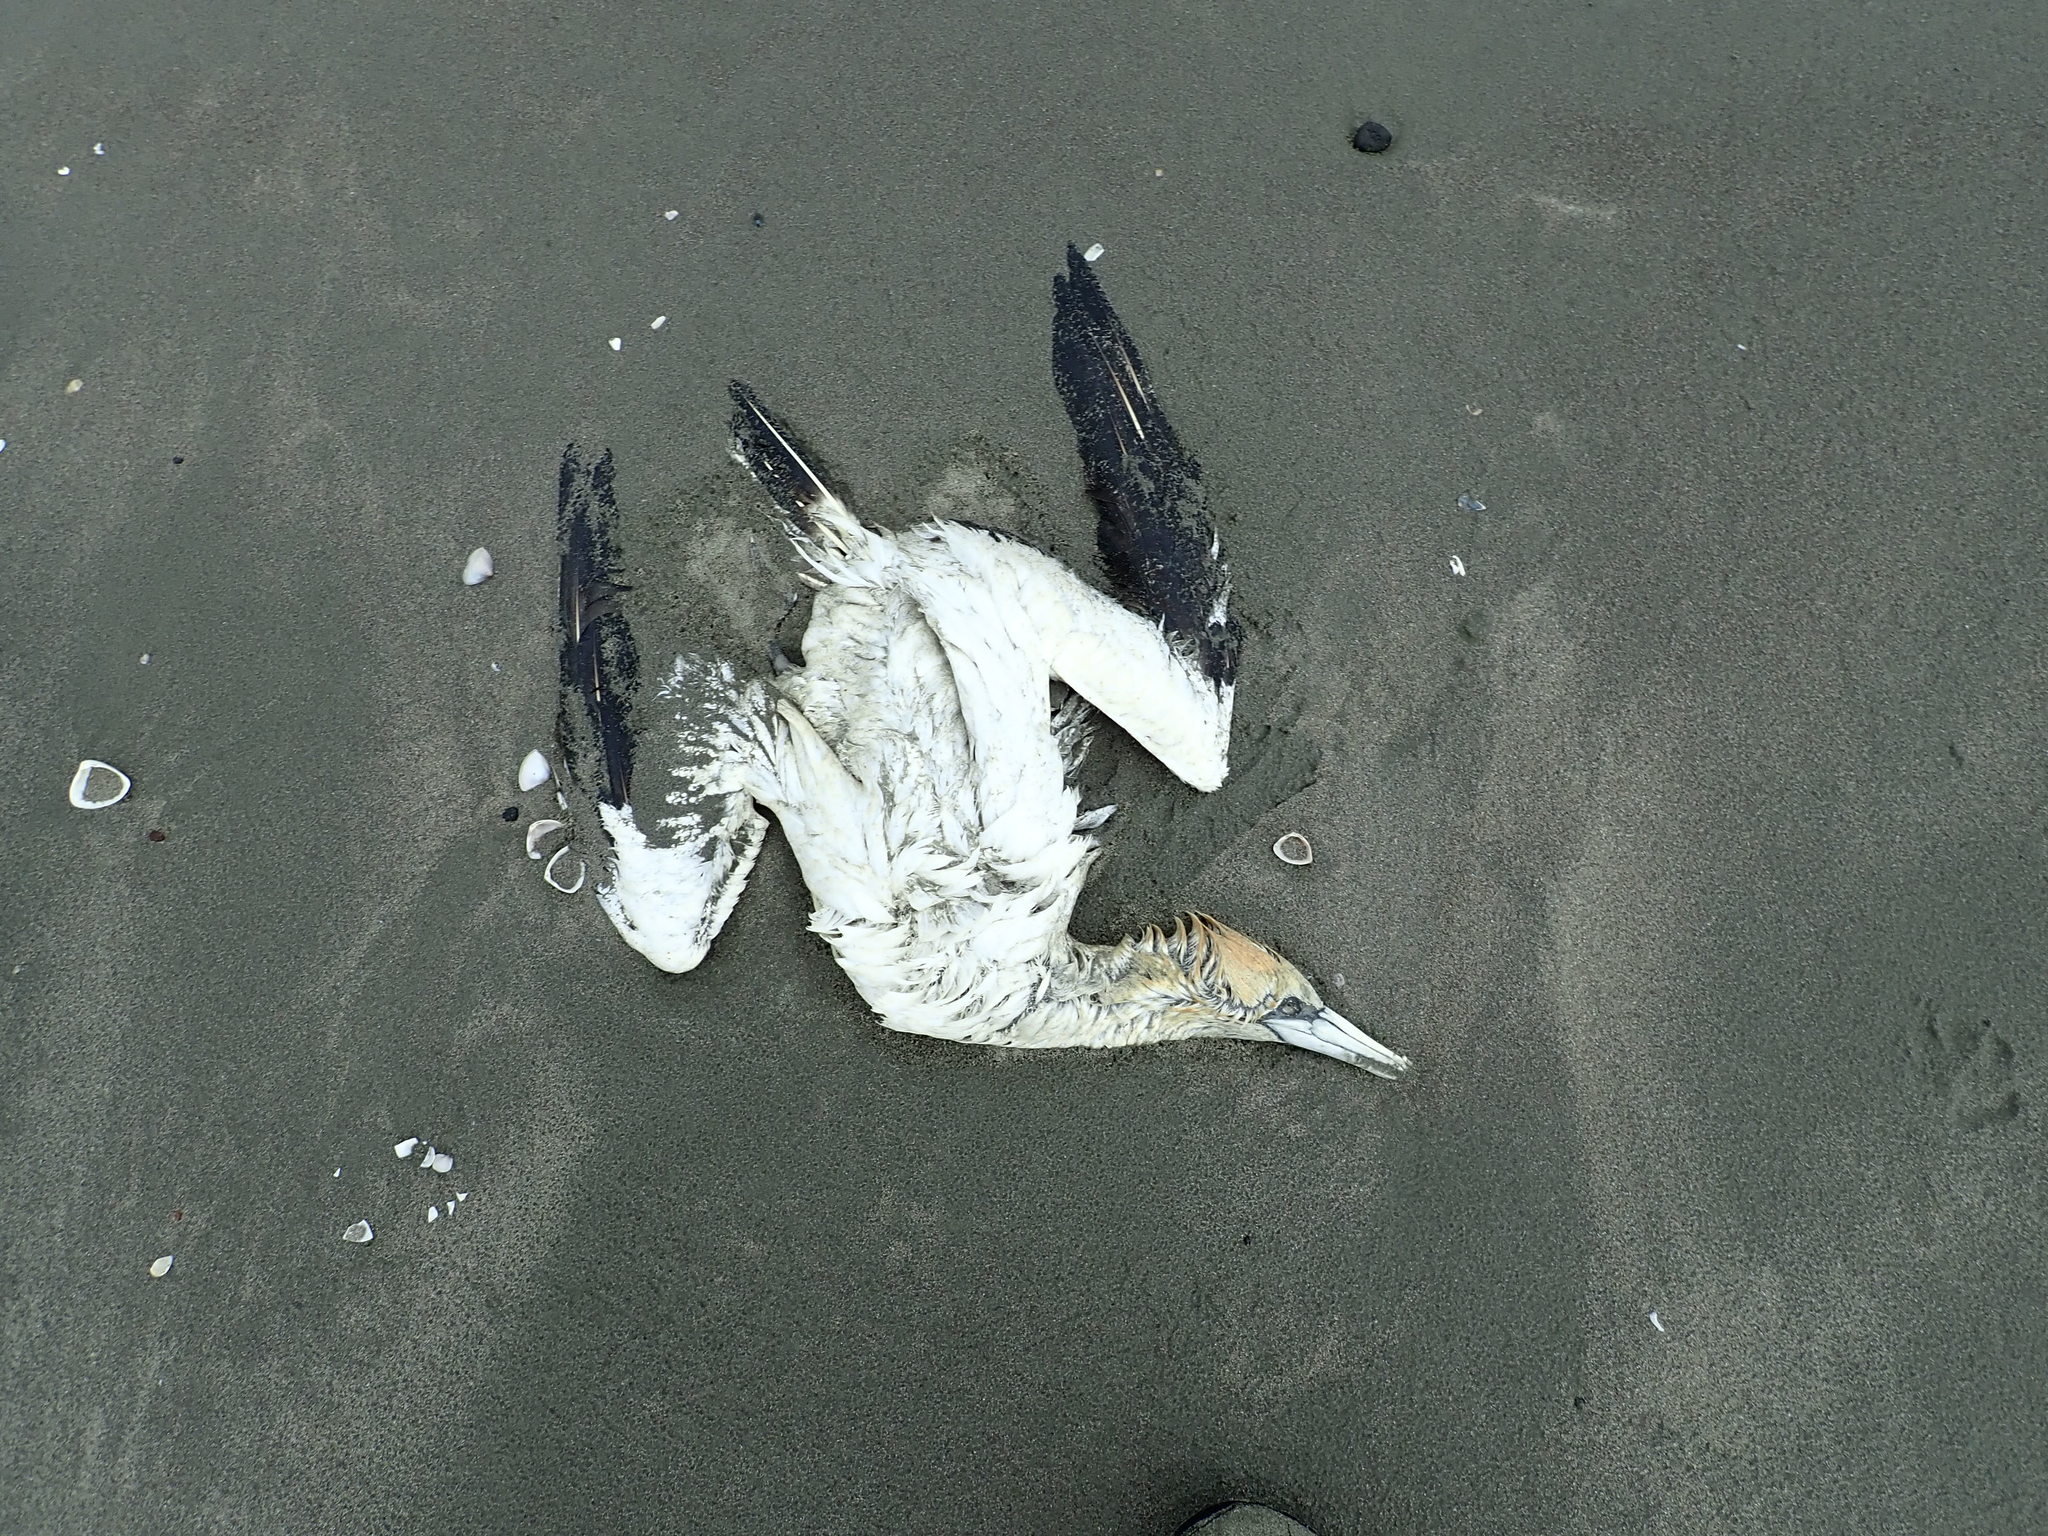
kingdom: Animalia
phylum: Chordata
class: Aves
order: Suliformes
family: Sulidae
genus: Morus
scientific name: Morus serrator
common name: Australasian gannet
